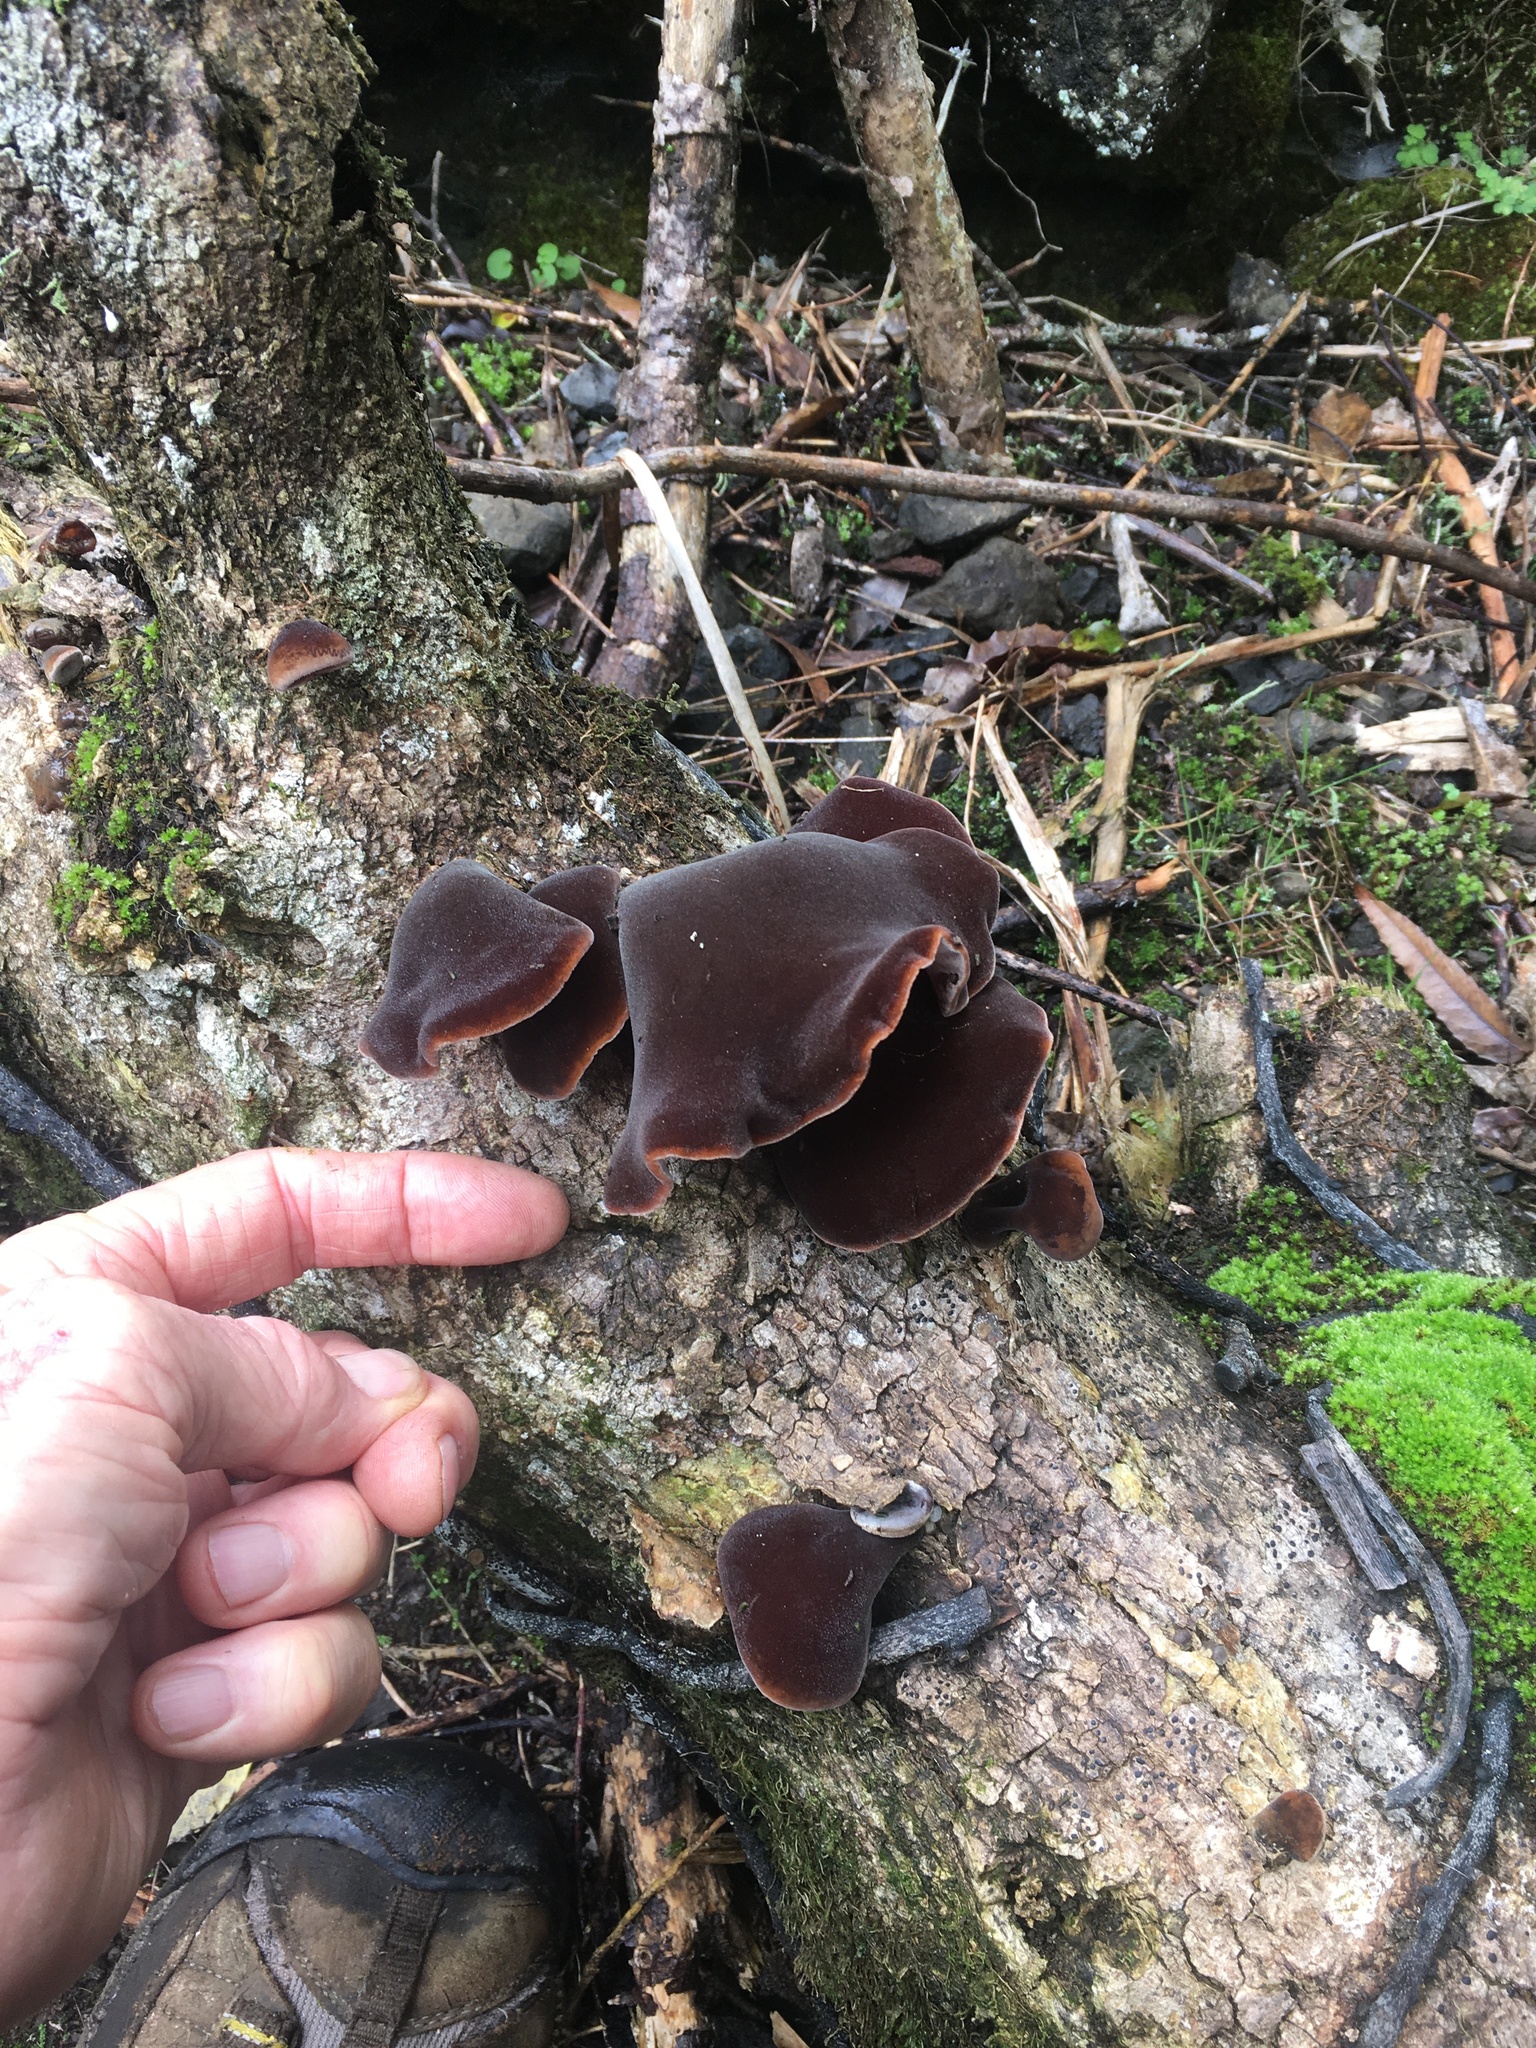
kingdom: Fungi
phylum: Basidiomycota
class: Agaricomycetes
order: Auriculariales
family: Auriculariaceae
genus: Auricularia
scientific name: Auricularia cornea
